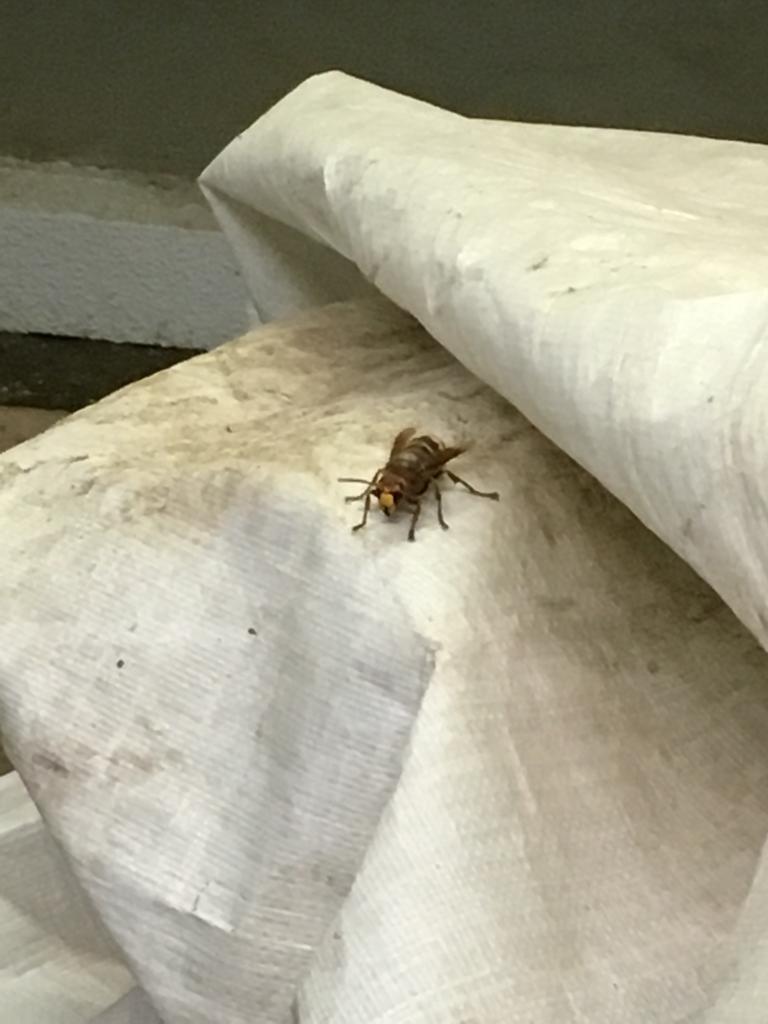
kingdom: Animalia
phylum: Arthropoda
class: Insecta
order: Hymenoptera
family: Vespidae
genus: Vespa
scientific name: Vespa crabro
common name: Hornet
